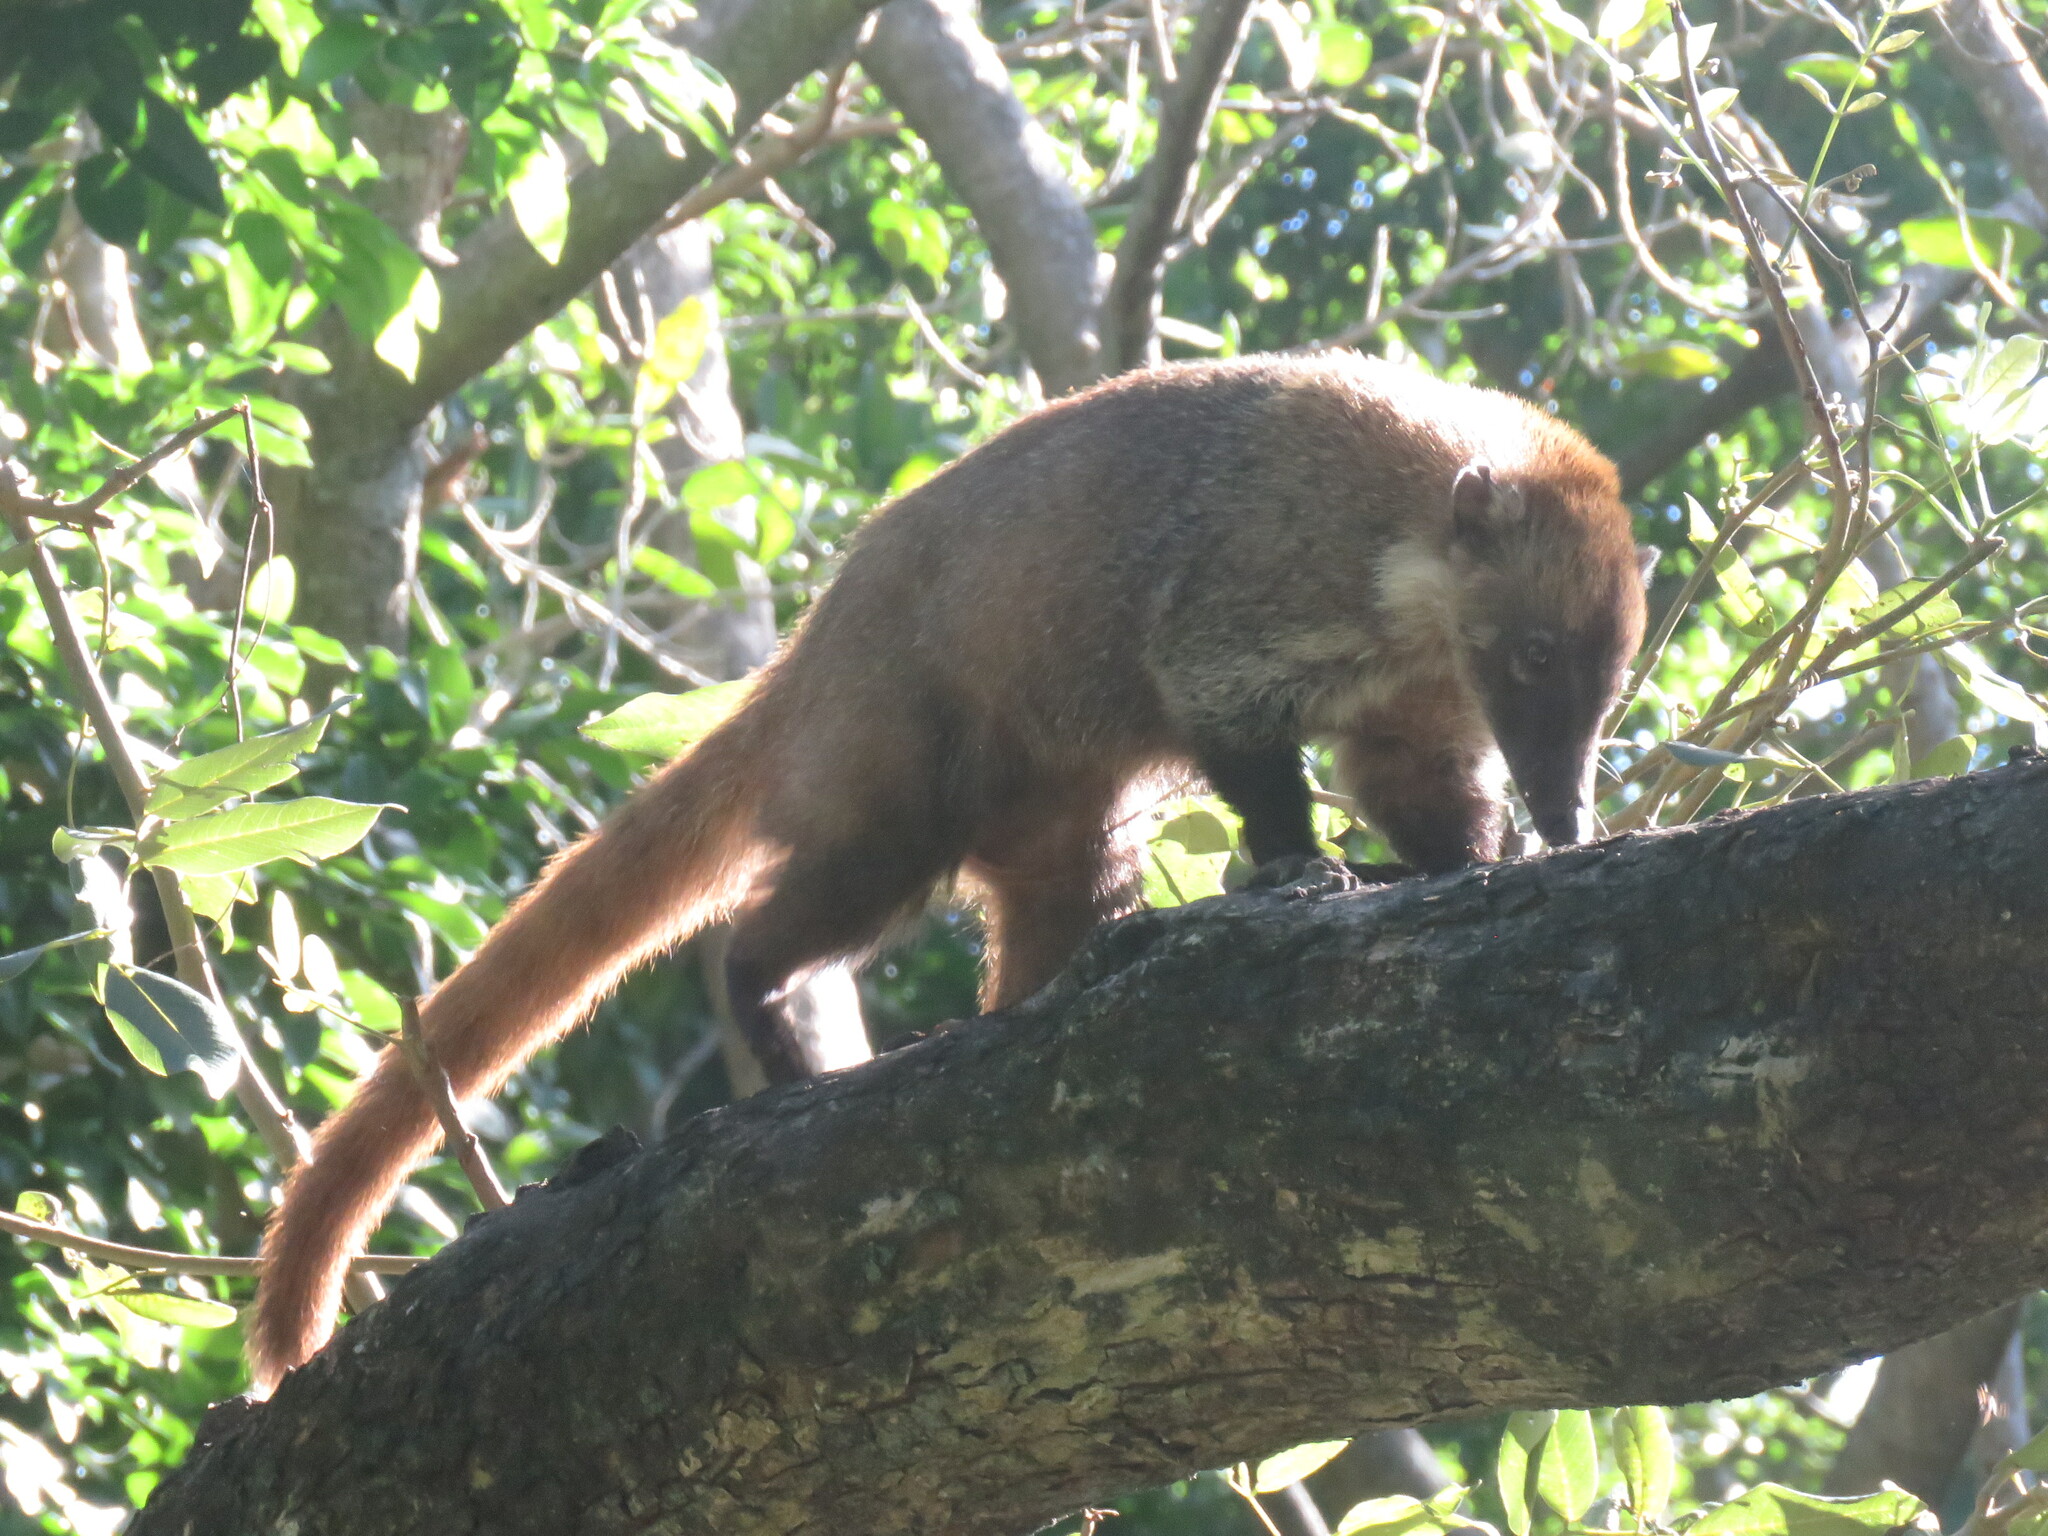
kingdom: Animalia
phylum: Chordata
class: Mammalia
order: Carnivora
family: Procyonidae
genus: Nasua
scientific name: Nasua narica
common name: White-nosed coati
